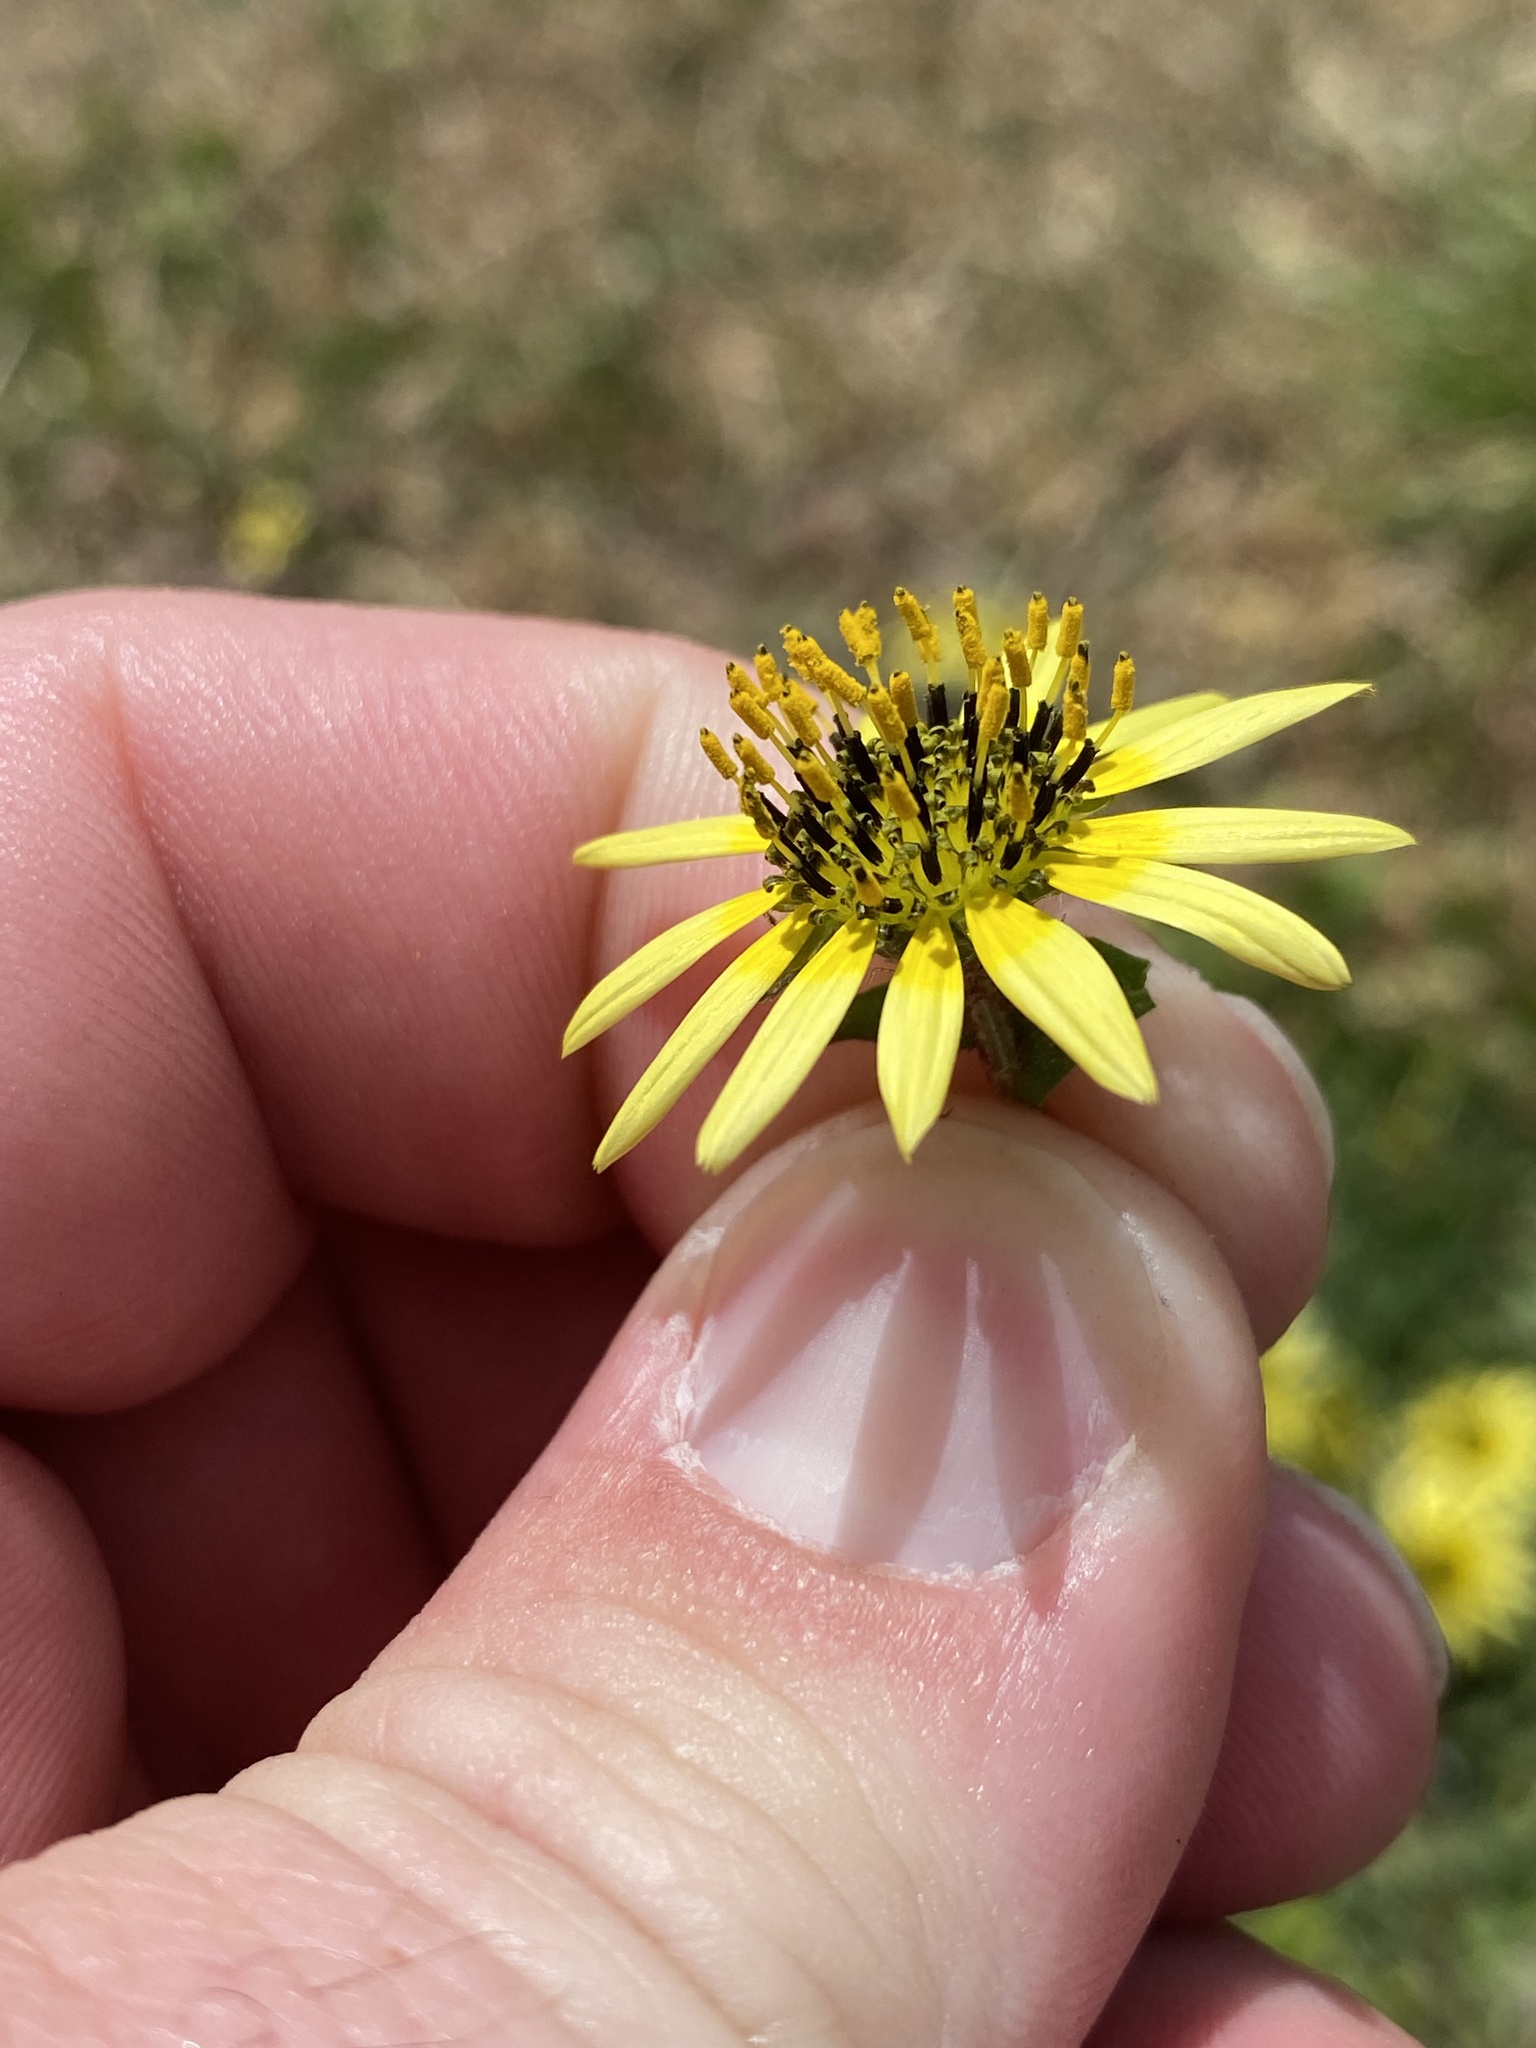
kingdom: Plantae
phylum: Tracheophyta
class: Magnoliopsida
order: Asterales
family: Asteraceae
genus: Arctotheca
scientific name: Arctotheca calendula
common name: Capeweed
